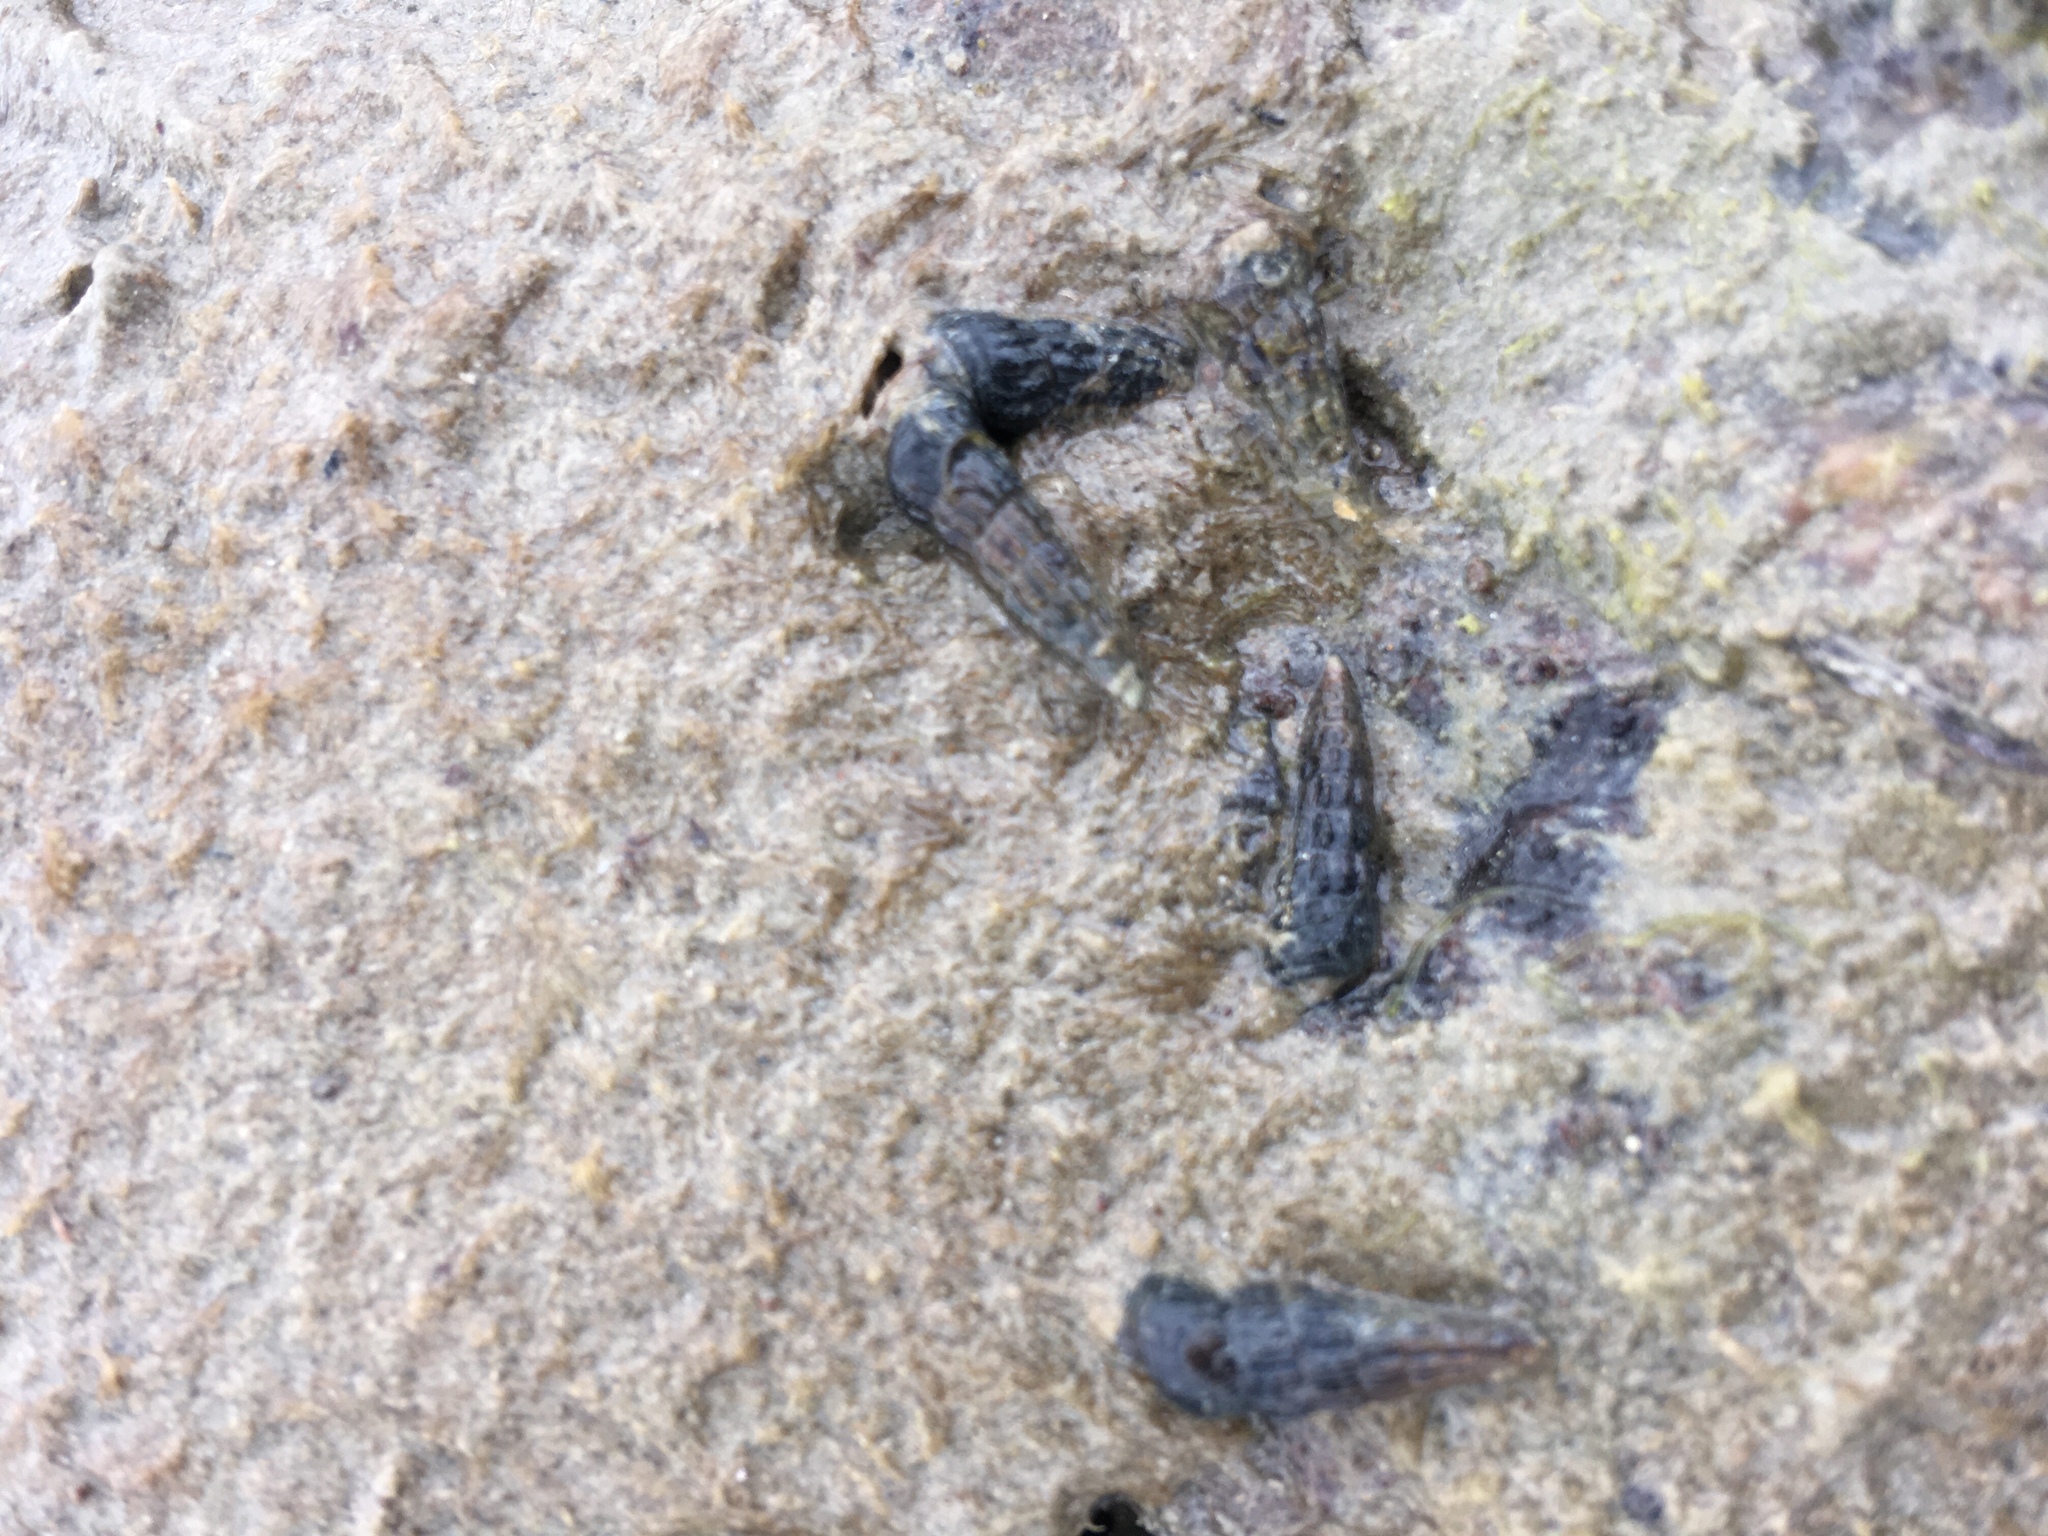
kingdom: Animalia
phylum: Mollusca
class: Gastropoda
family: Batillariidae
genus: Zeacumantus
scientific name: Zeacumantus subcarinatus
